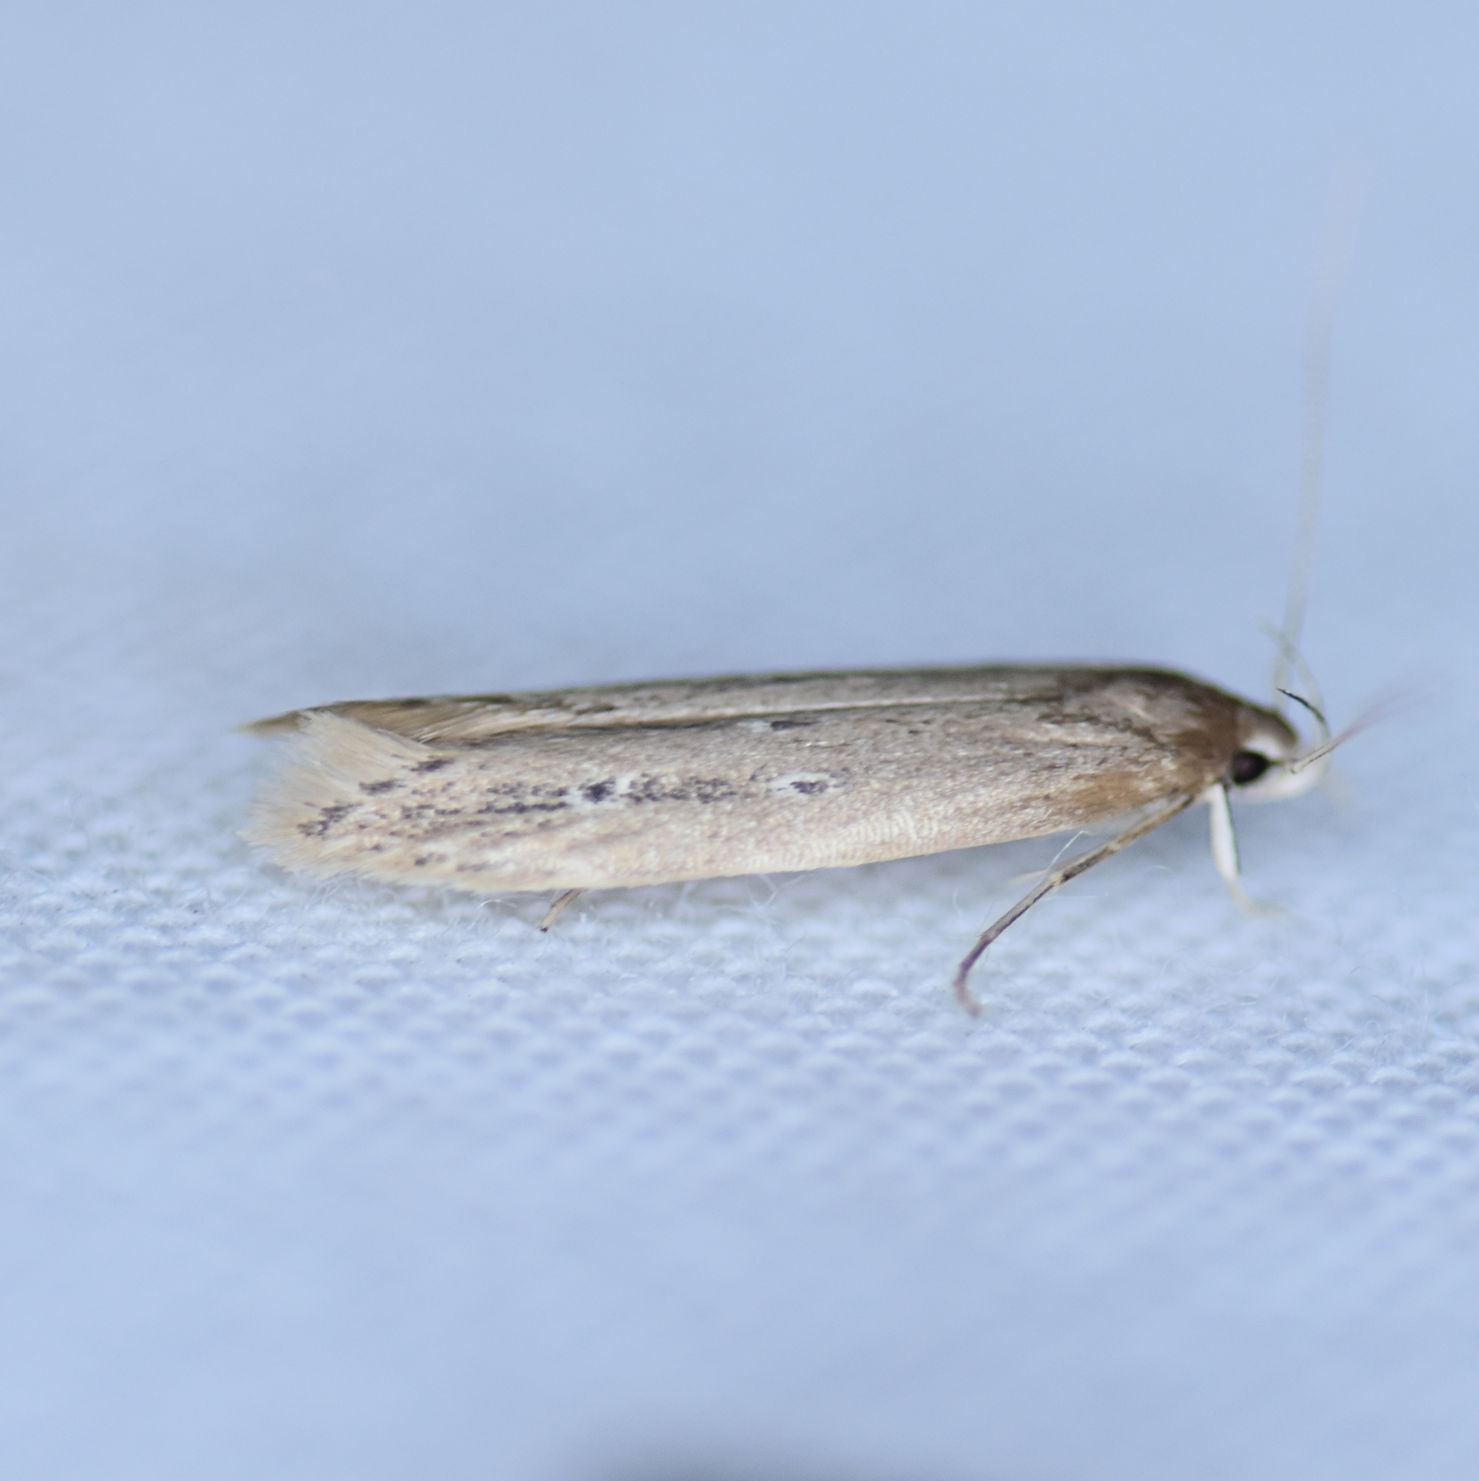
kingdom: Animalia
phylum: Arthropoda
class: Insecta
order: Lepidoptera
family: Cosmopterigidae
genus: Limnaecia
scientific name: Limnaecia phragmitella
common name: Bulrush cosmet
